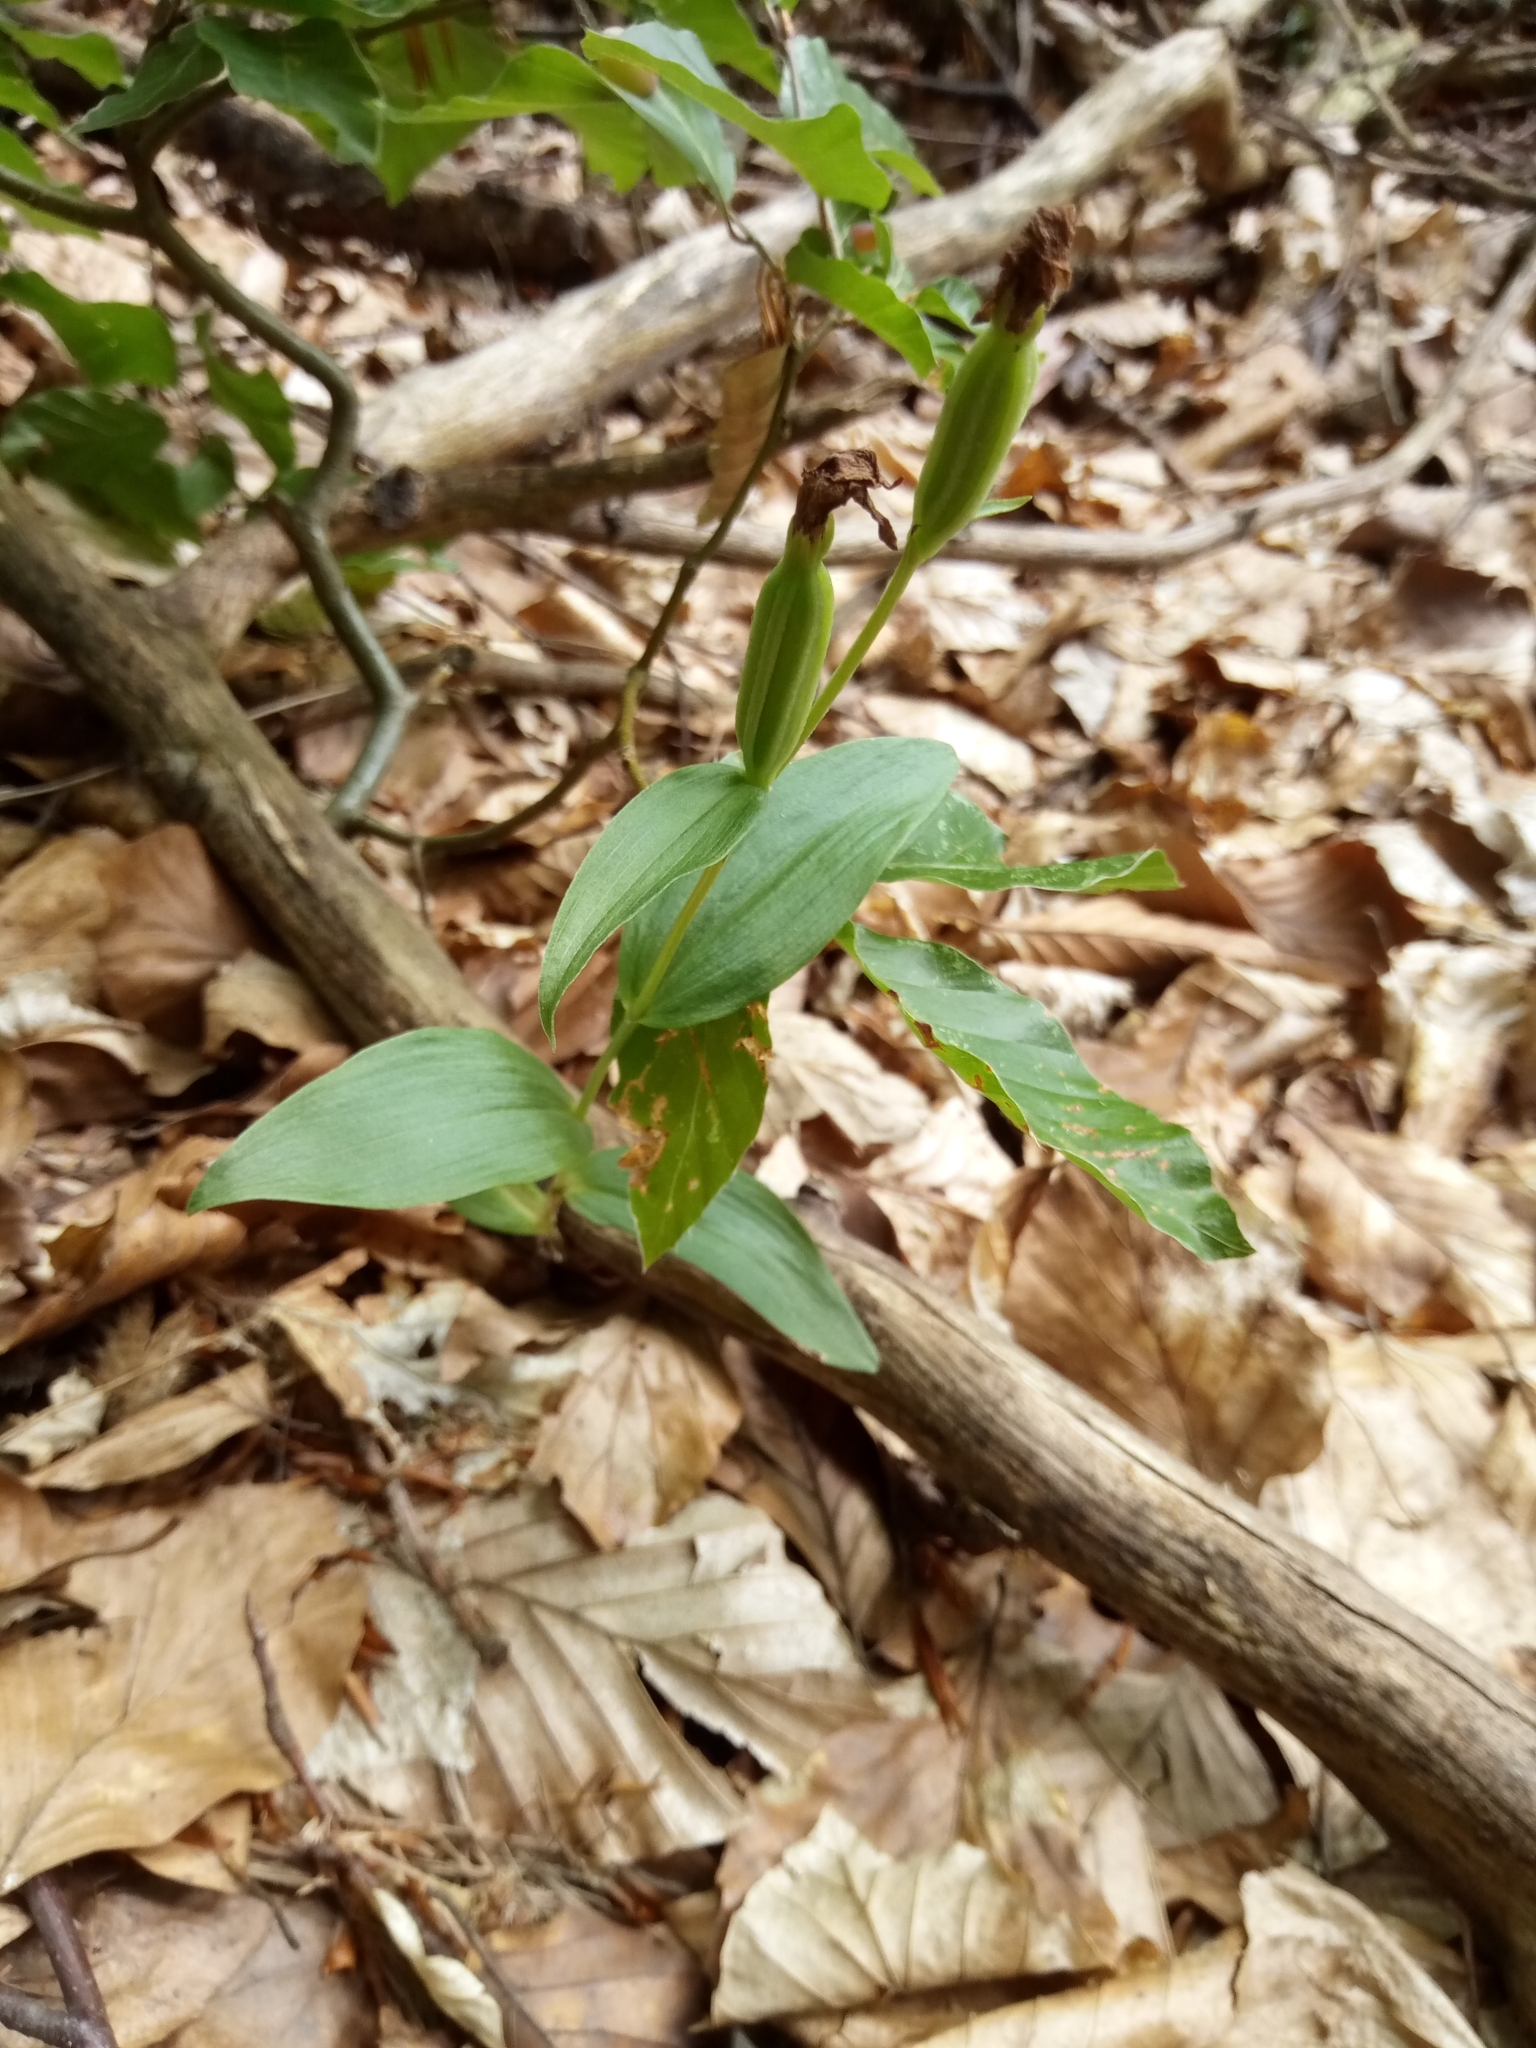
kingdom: Plantae
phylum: Tracheophyta
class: Liliopsida
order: Asparagales
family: Orchidaceae
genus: Cephalanthera
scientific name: Cephalanthera damasonium
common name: White helleborine
